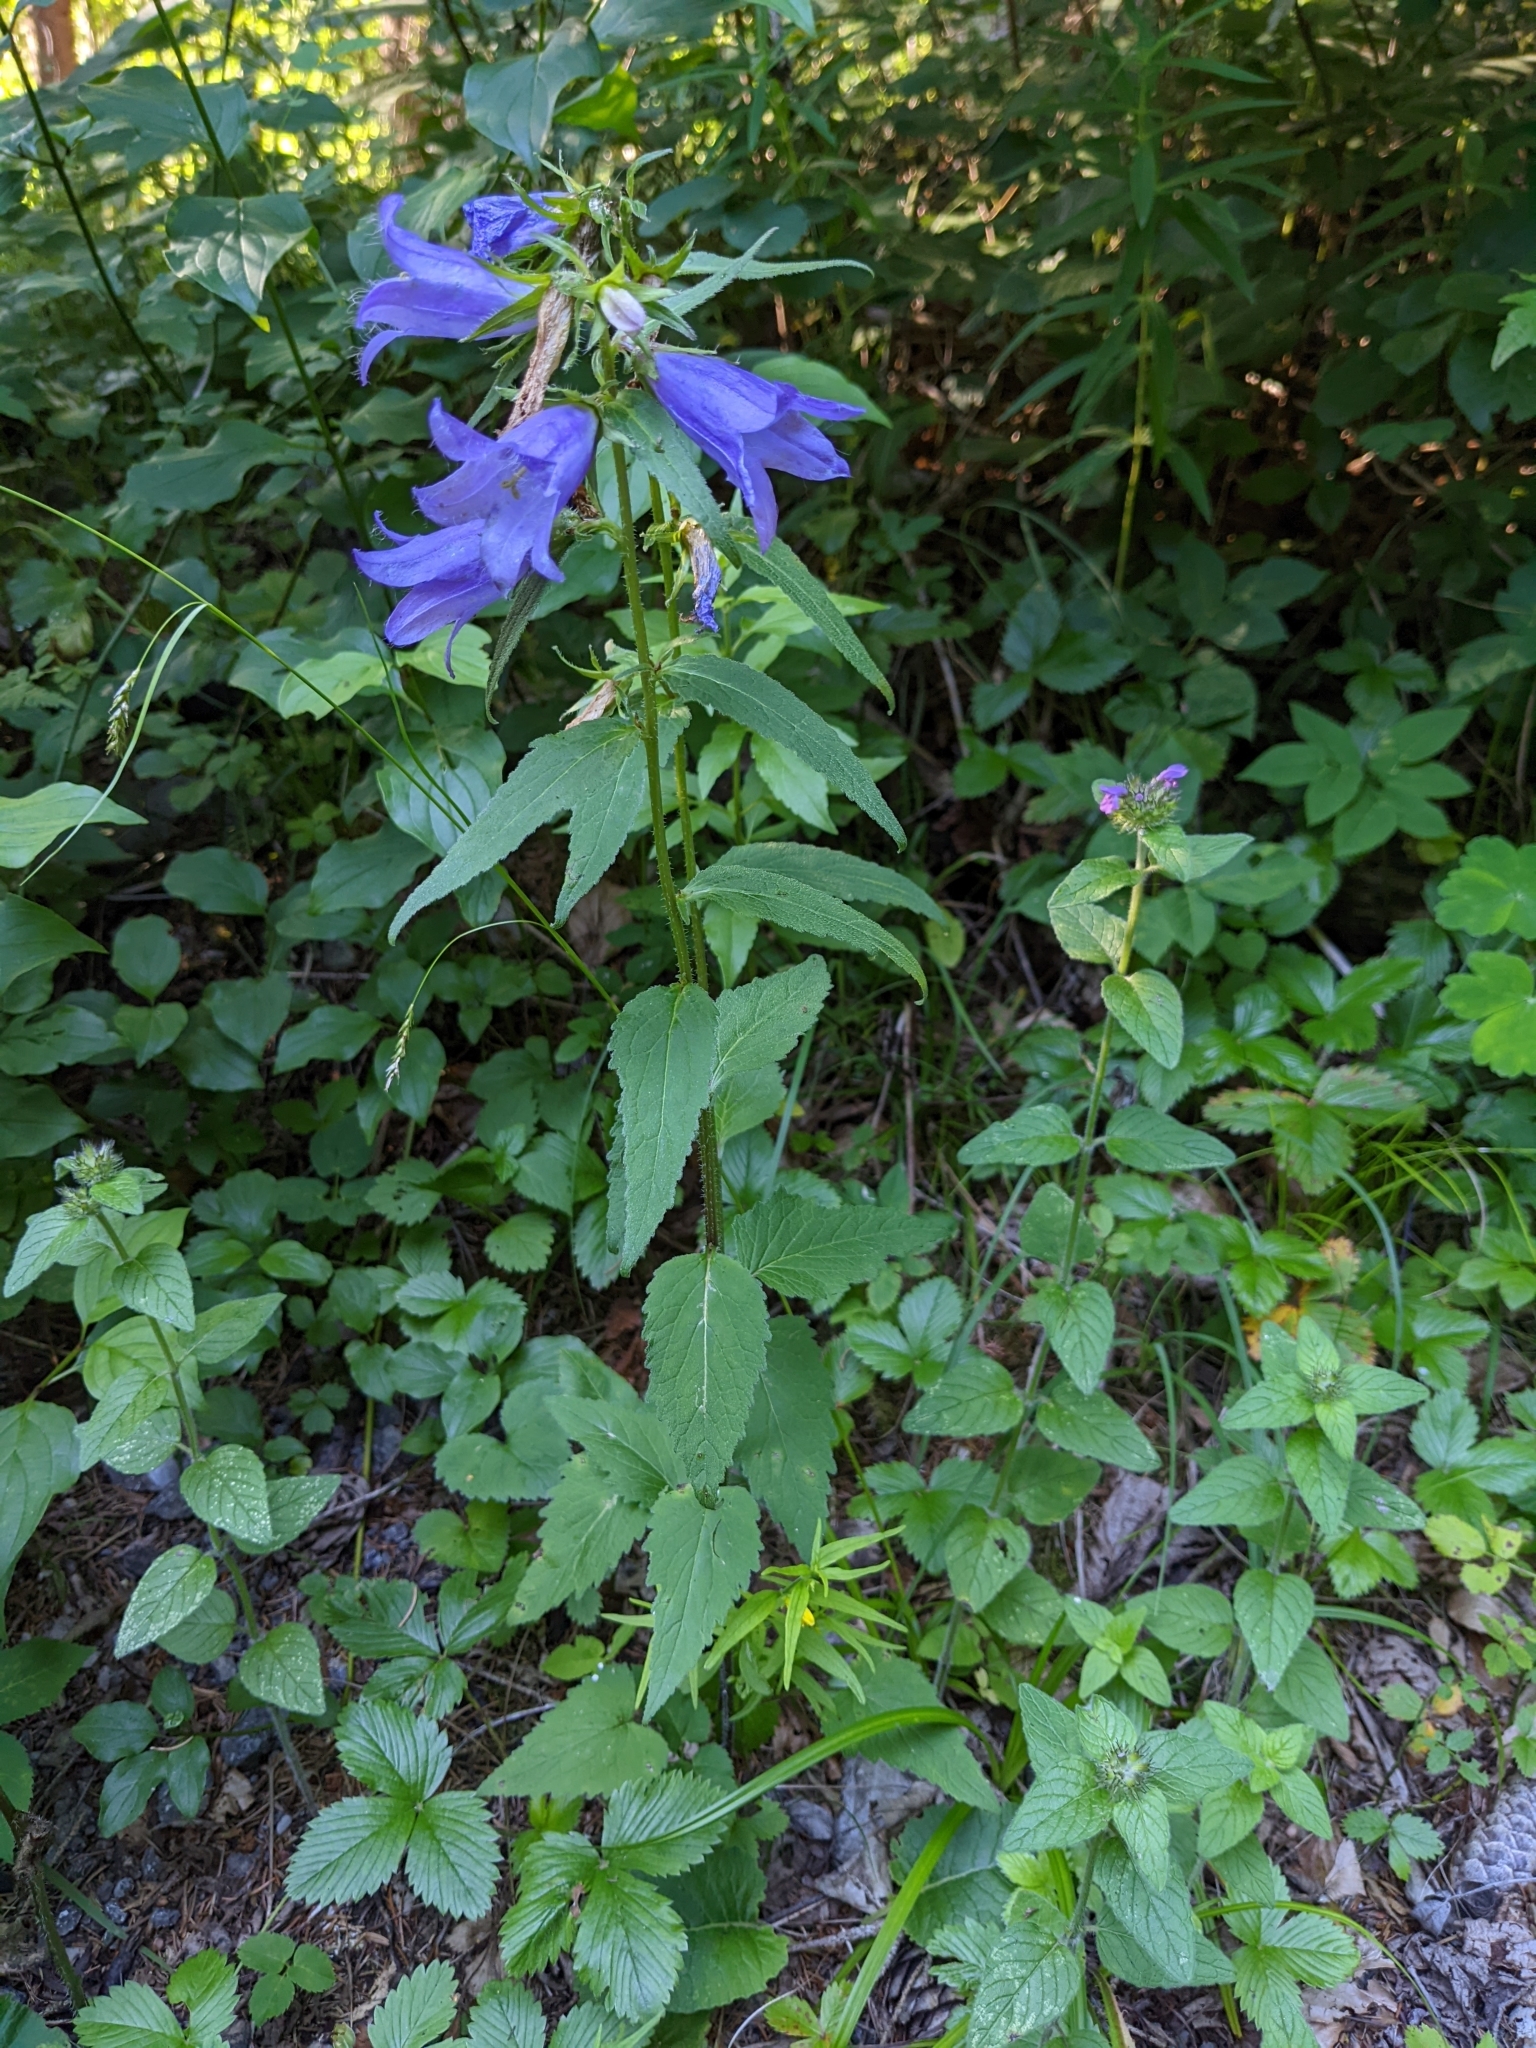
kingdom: Plantae
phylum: Tracheophyta
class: Magnoliopsida
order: Asterales
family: Campanulaceae
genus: Campanula
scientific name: Campanula trachelium
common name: Nettle-leaved bellflower
